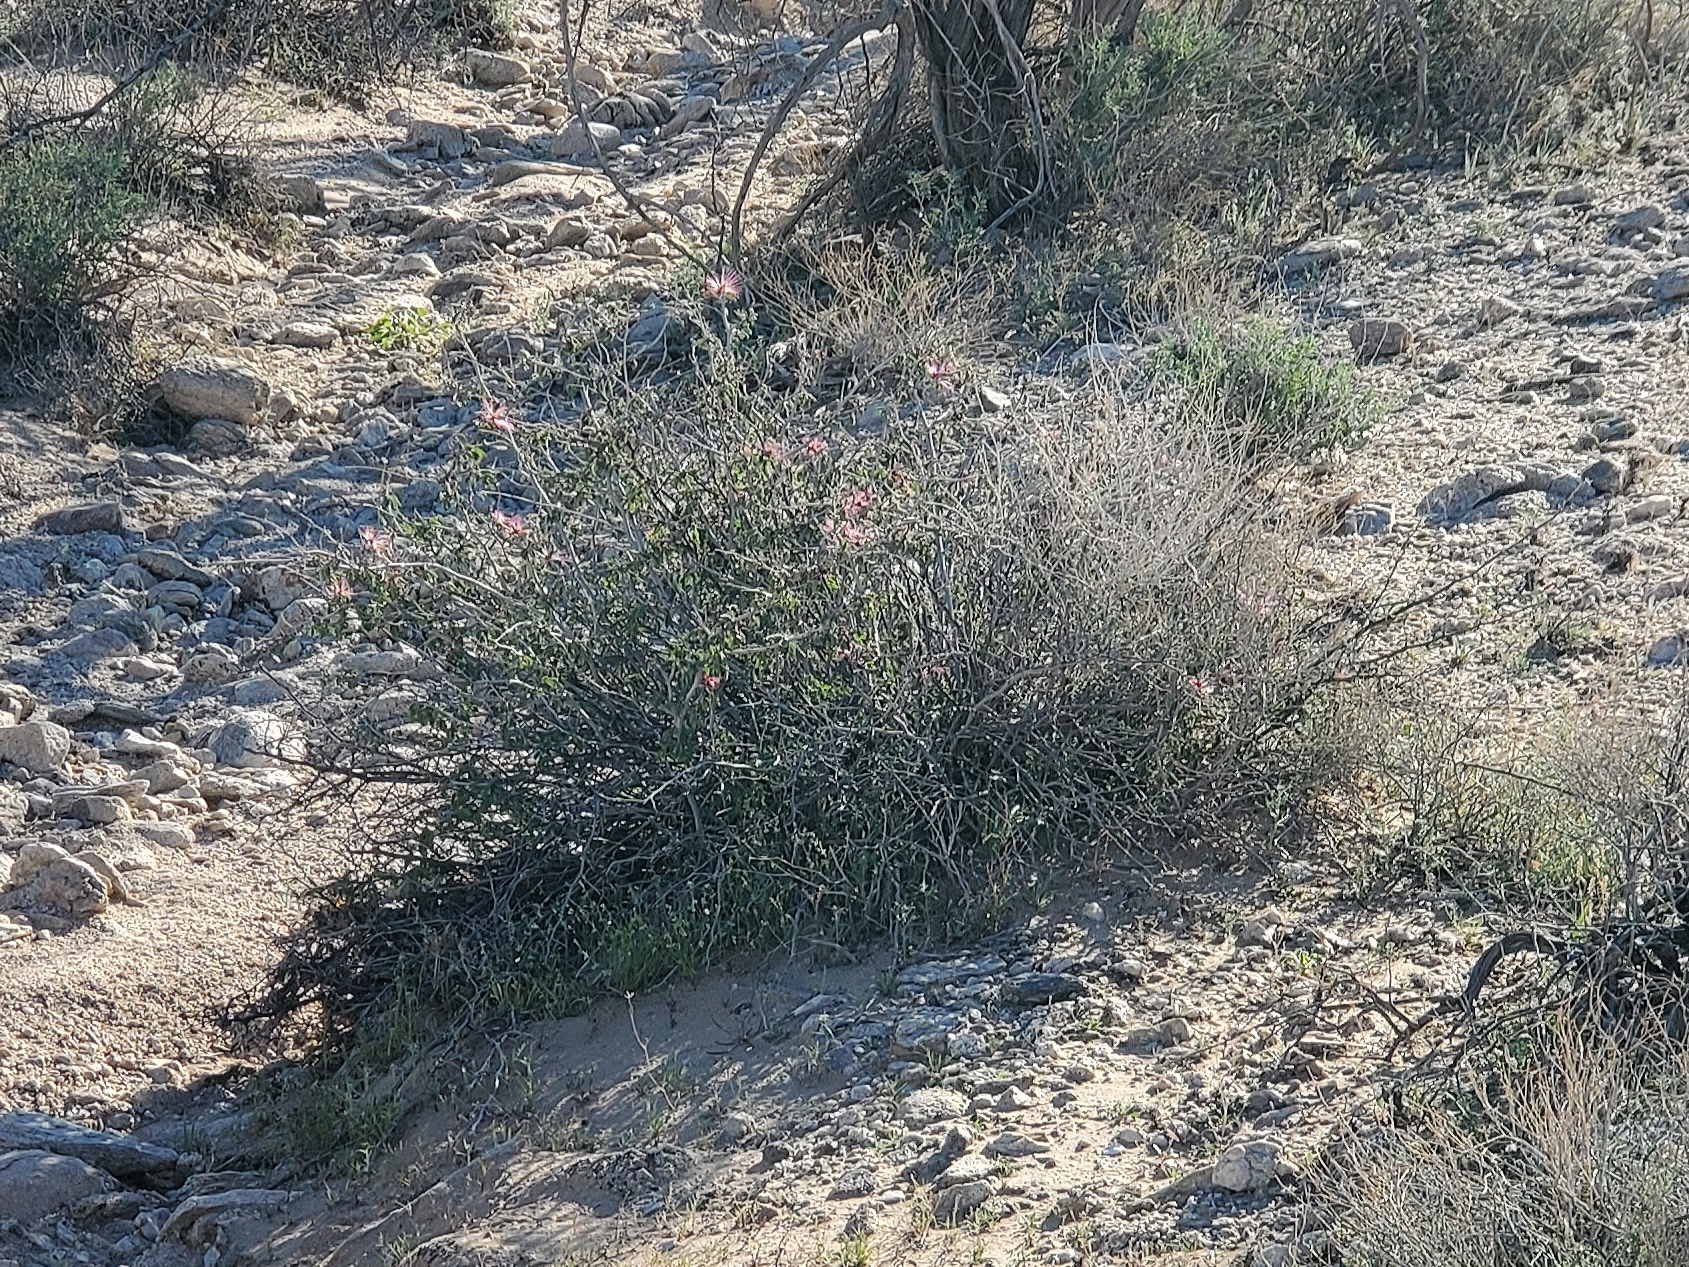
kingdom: Plantae
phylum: Tracheophyta
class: Magnoliopsida
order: Fabales
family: Fabaceae
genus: Calliandra
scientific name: Calliandra eriophylla
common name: Fairy-duster
